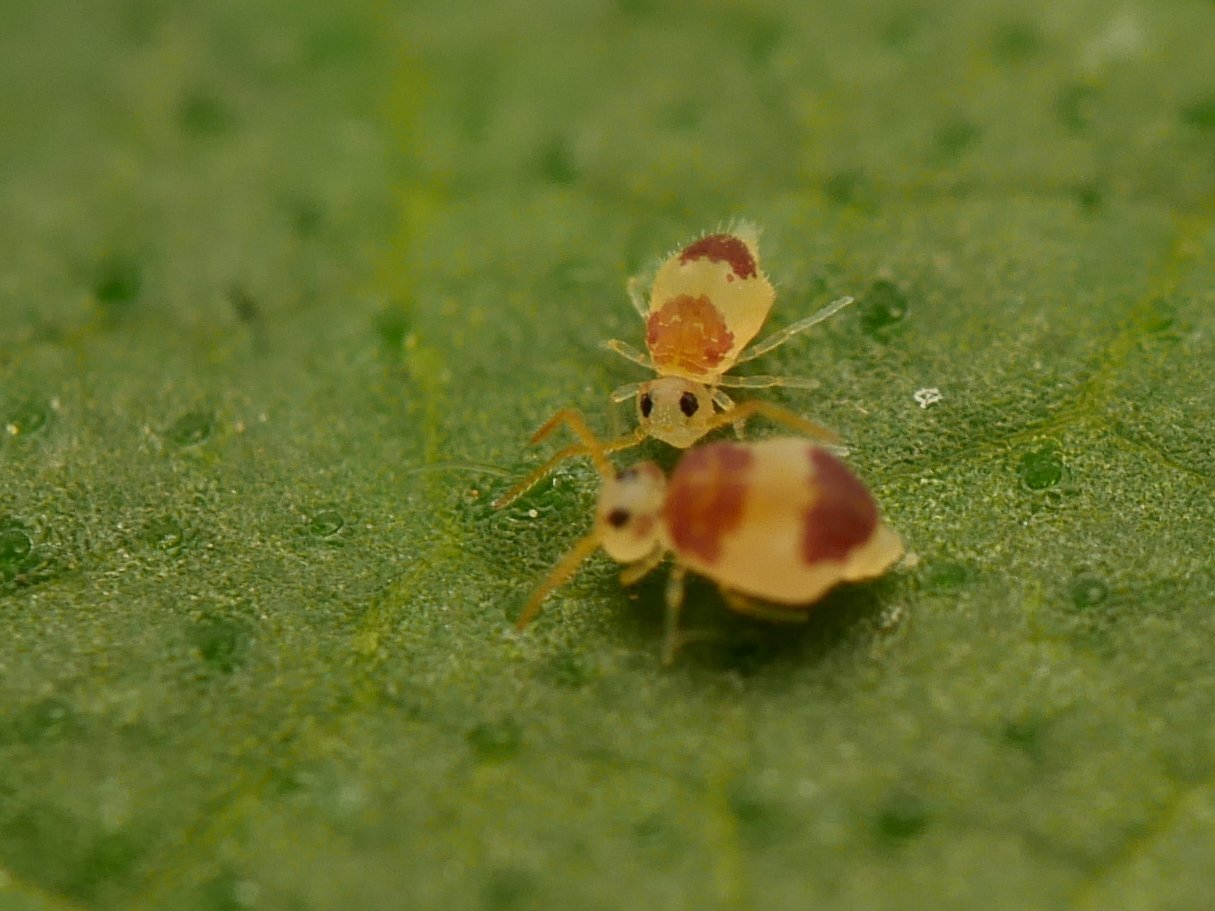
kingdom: Animalia
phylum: Arthropoda
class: Collembola
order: Symphypleona
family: Bourletiellidae
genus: Deuterosminthurus
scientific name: Deuterosminthurus bicinctus
